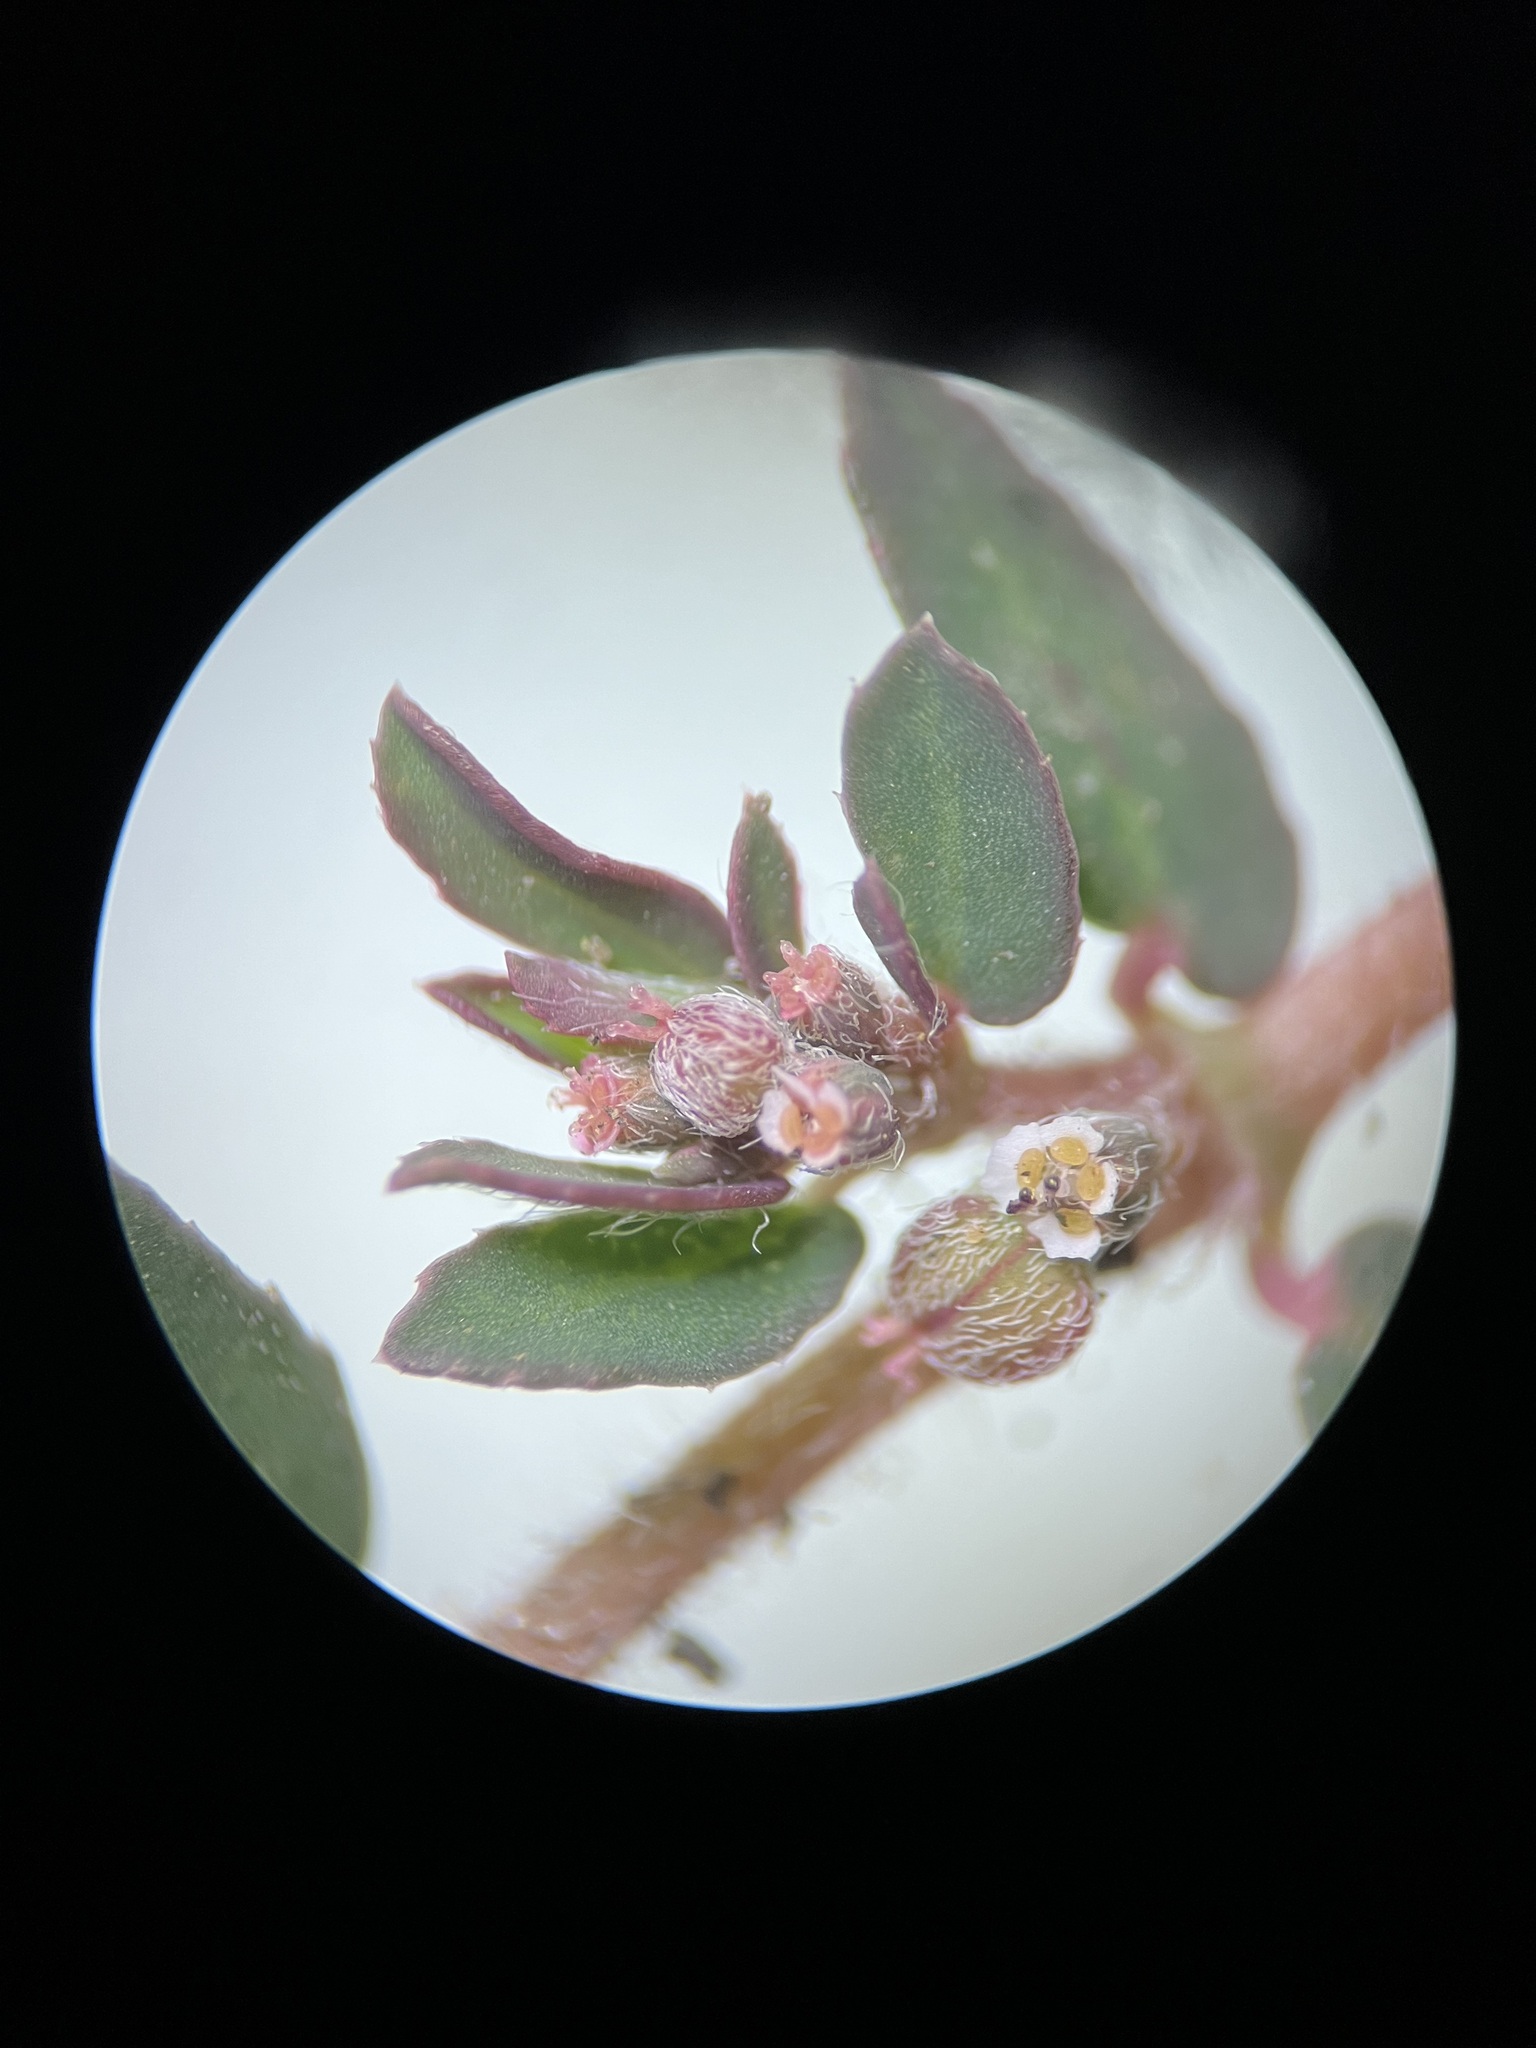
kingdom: Plantae
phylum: Tracheophyta
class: Magnoliopsida
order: Malpighiales
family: Euphorbiaceae
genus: Euphorbia
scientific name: Euphorbia maculata
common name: Spotted spurge
